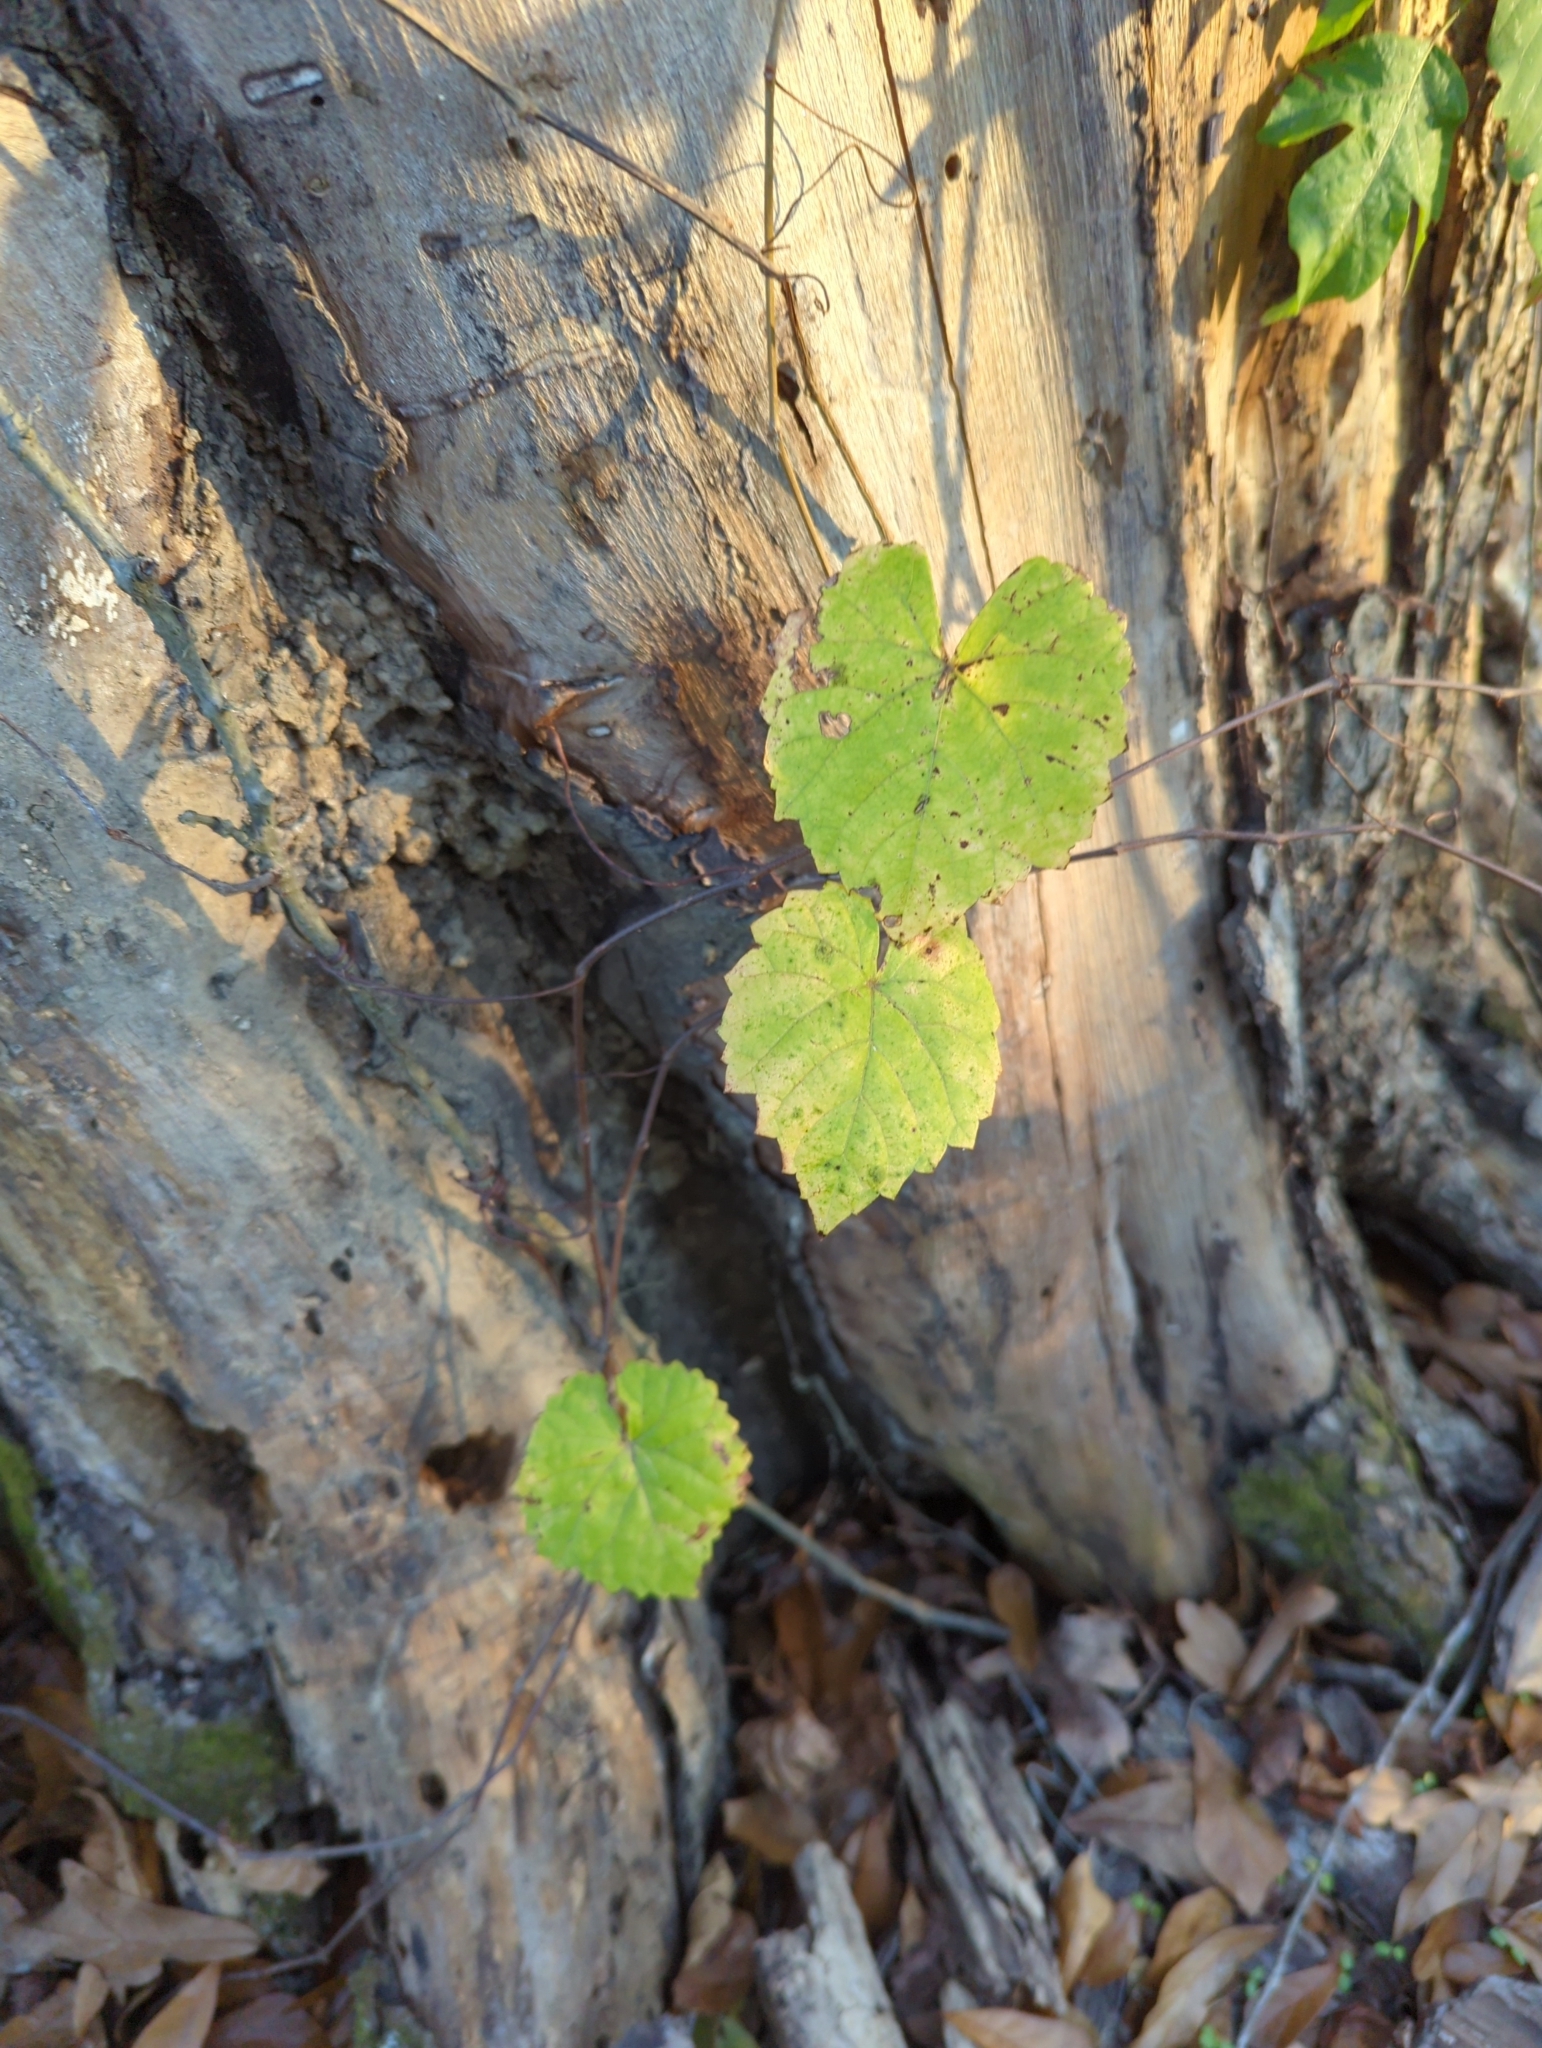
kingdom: Plantae
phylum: Tracheophyta
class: Magnoliopsida
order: Vitales
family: Vitaceae
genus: Vitis
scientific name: Vitis rotundifolia
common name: Muscadine grape
